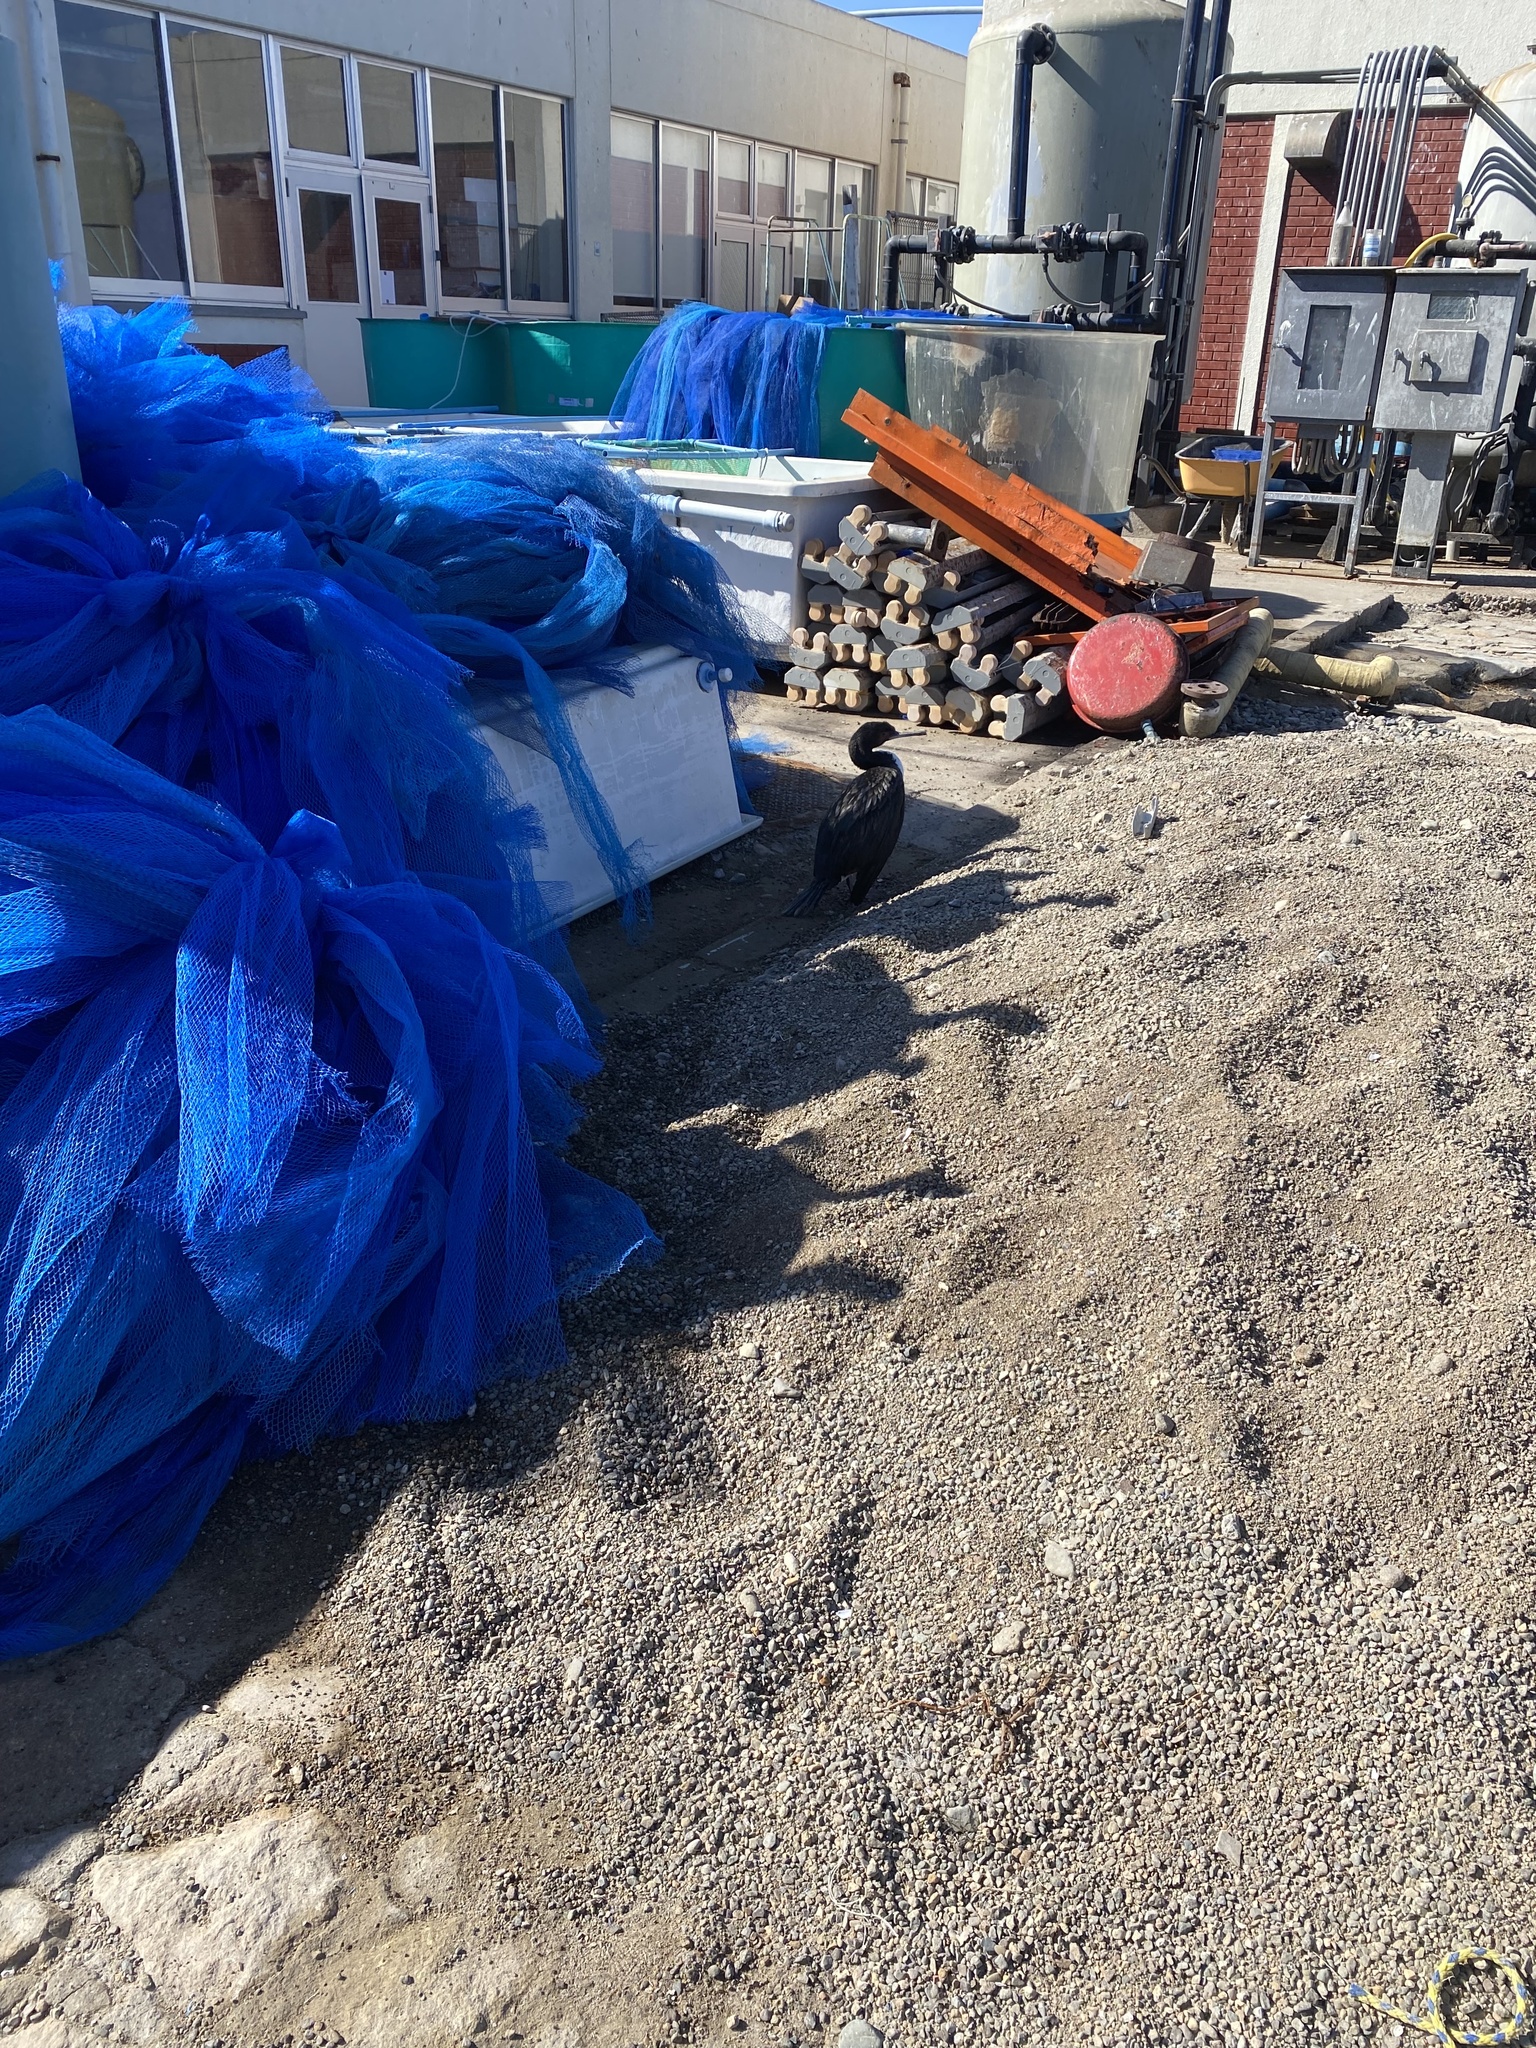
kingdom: Animalia
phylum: Chordata
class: Aves
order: Suliformes
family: Phalacrocoracidae
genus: Leucocarbo
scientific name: Leucocarbo bougainvillii
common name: Guanay cormorant
